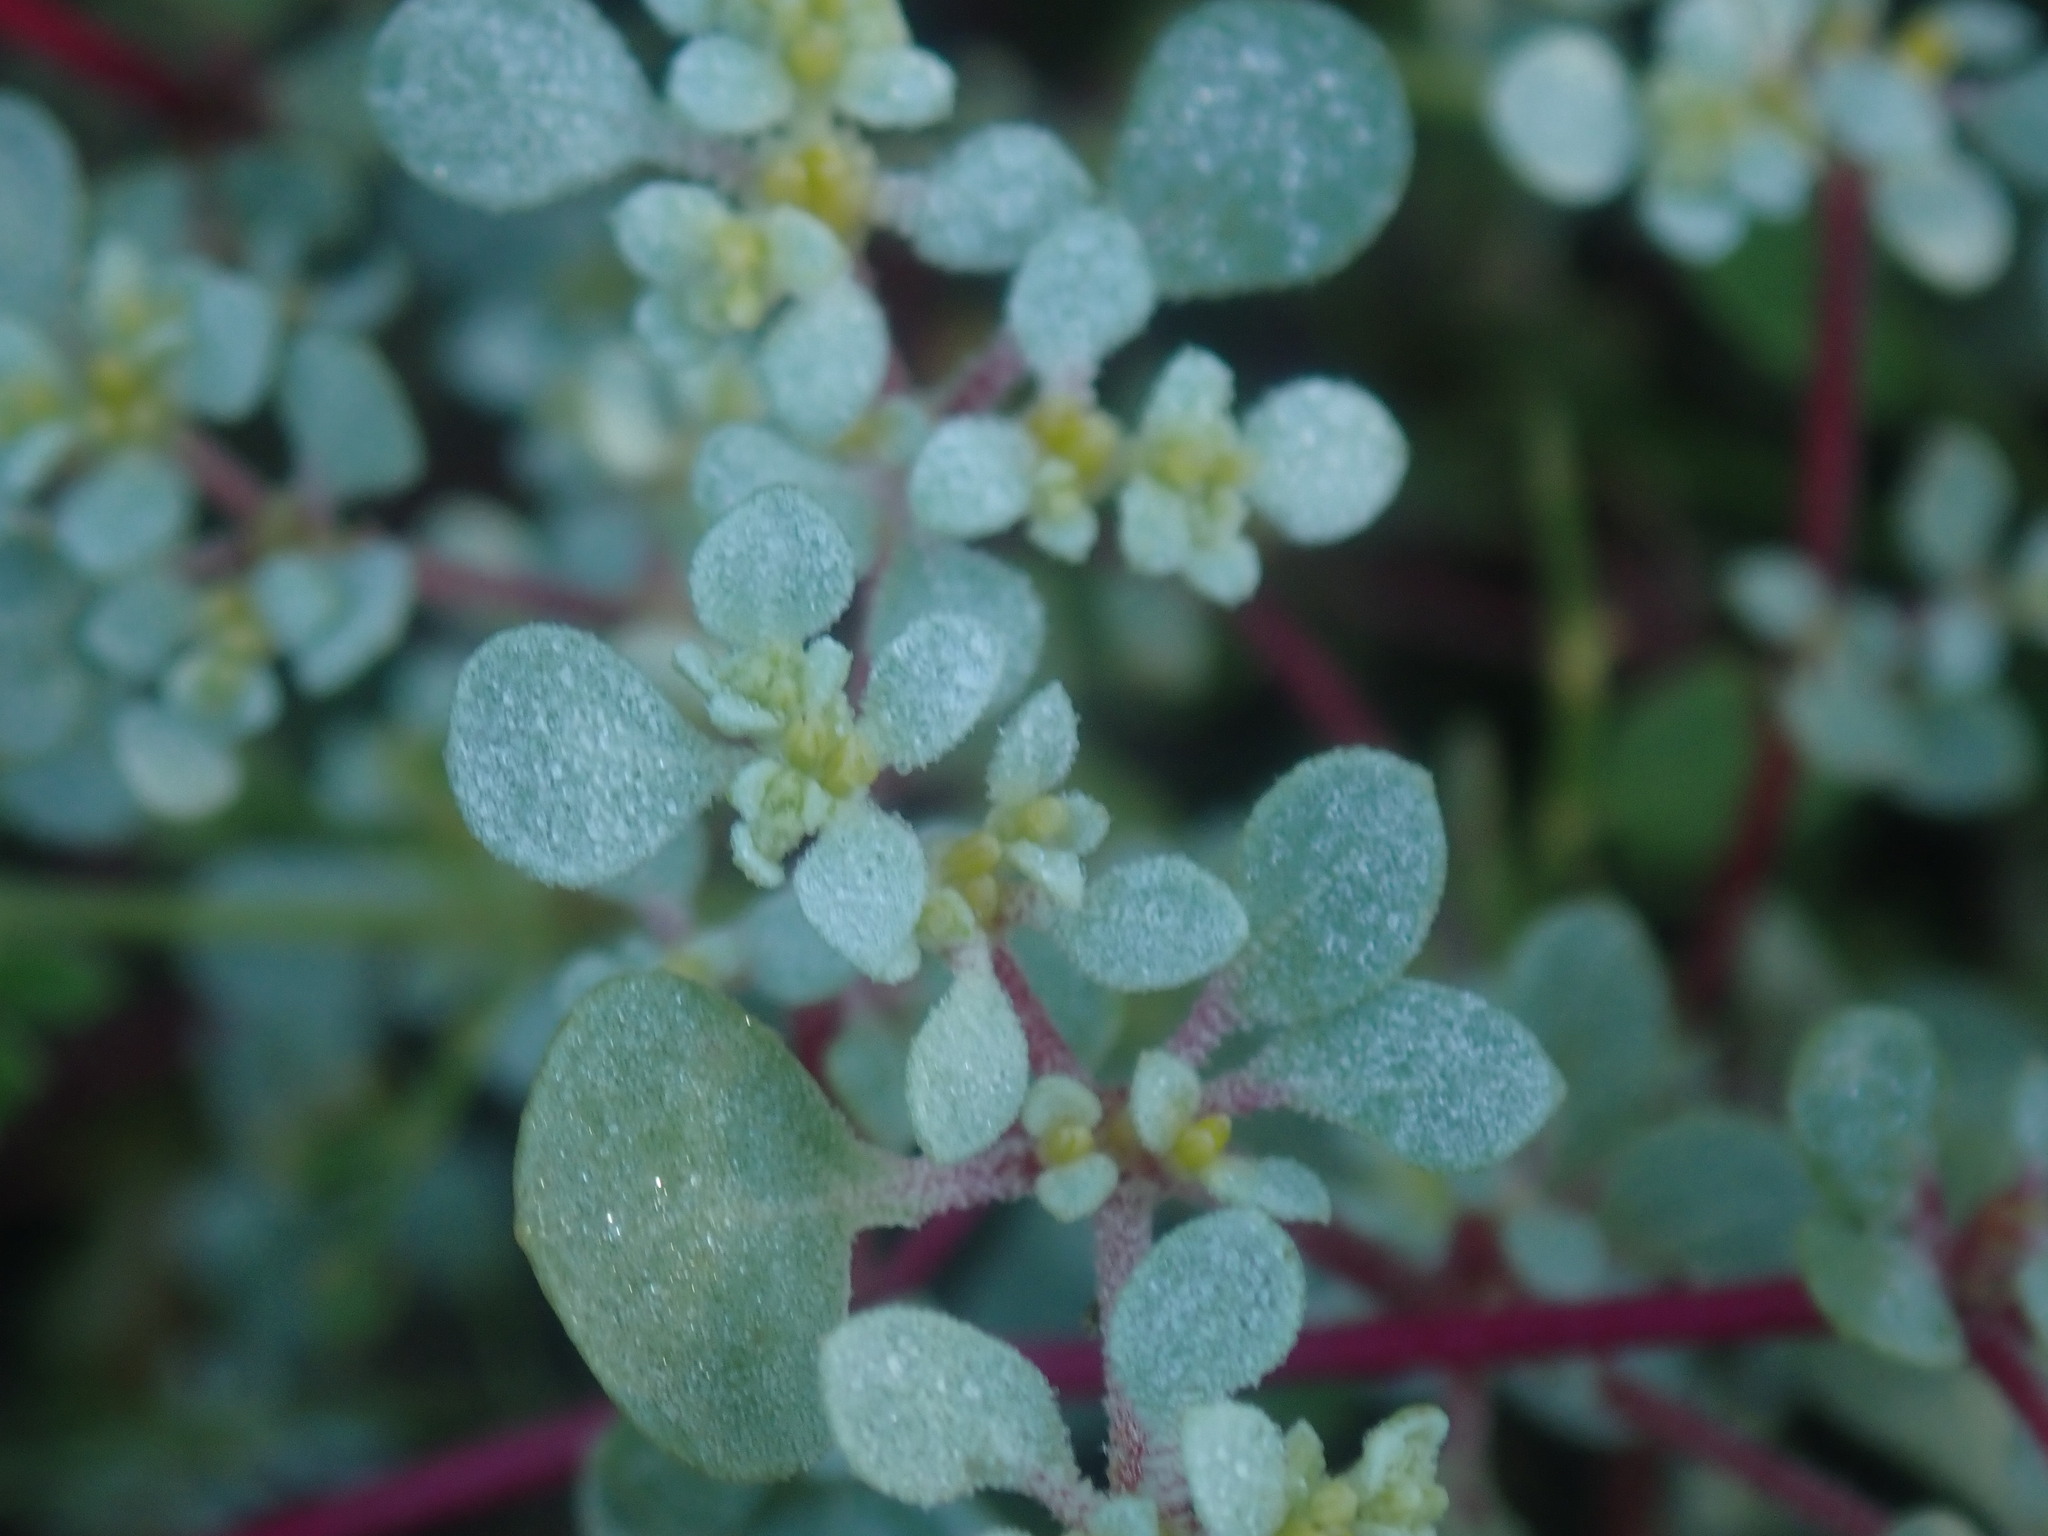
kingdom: Plantae
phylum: Tracheophyta
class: Magnoliopsida
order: Caryophyllales
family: Amaranthaceae
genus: Tidestromia
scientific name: Tidestromia lanuginosa
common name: Woolly tidestromia
